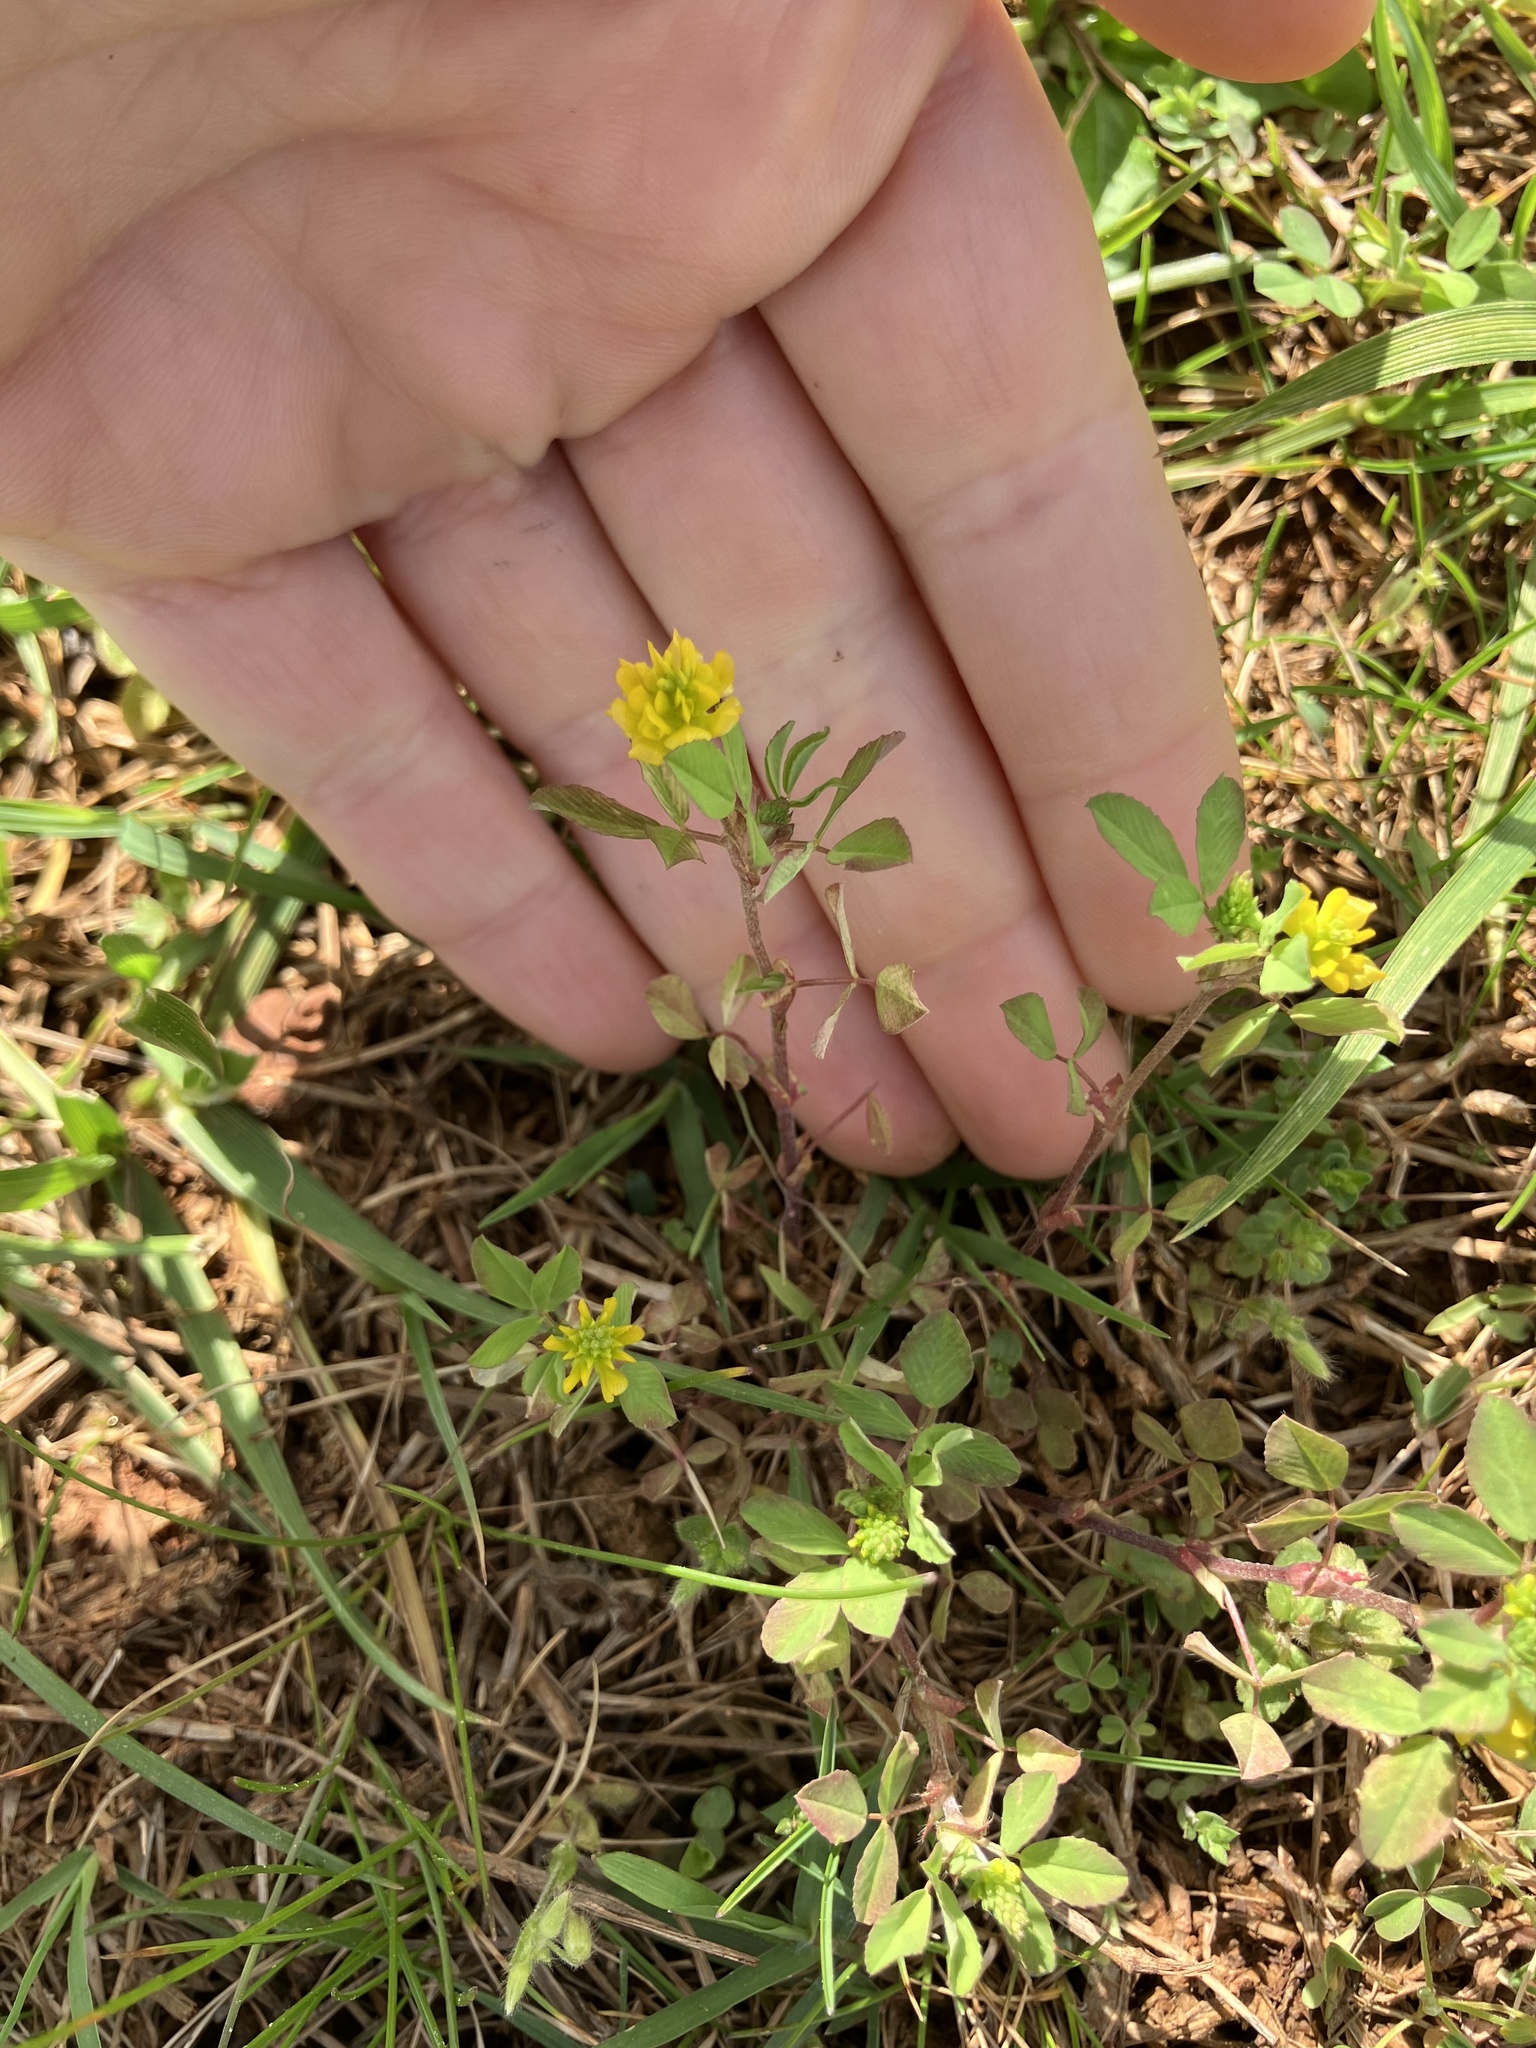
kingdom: Plantae
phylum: Tracheophyta
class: Magnoliopsida
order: Fabales
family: Fabaceae
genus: Trifolium
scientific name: Trifolium campestre
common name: Field clover
